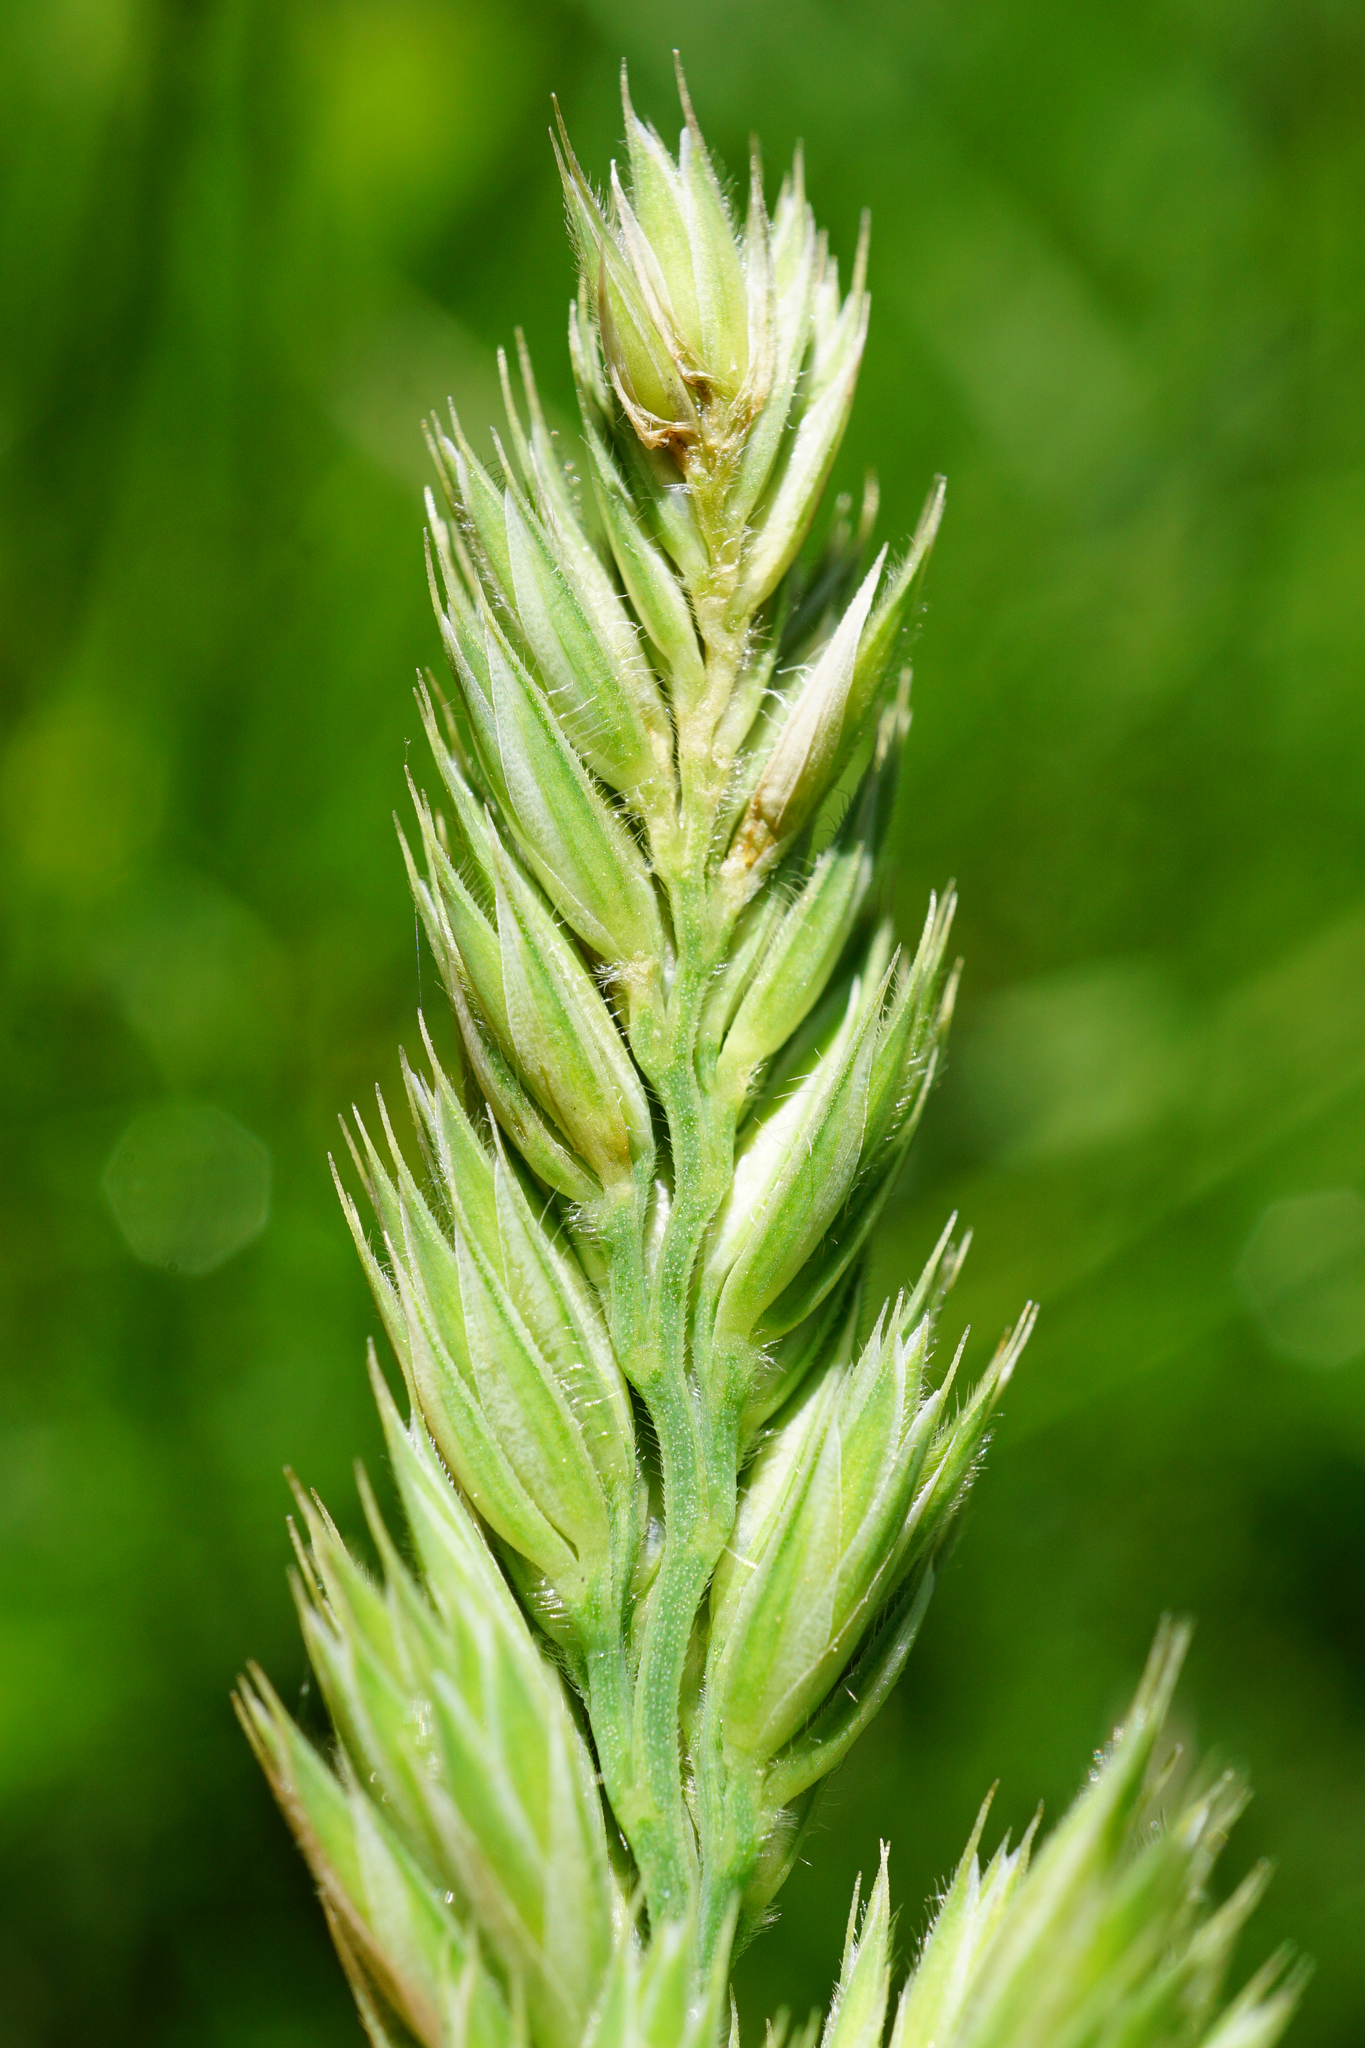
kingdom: Plantae
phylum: Tracheophyta
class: Liliopsida
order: Poales
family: Poaceae
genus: Dactylis
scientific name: Dactylis glomerata
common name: Orchardgrass
